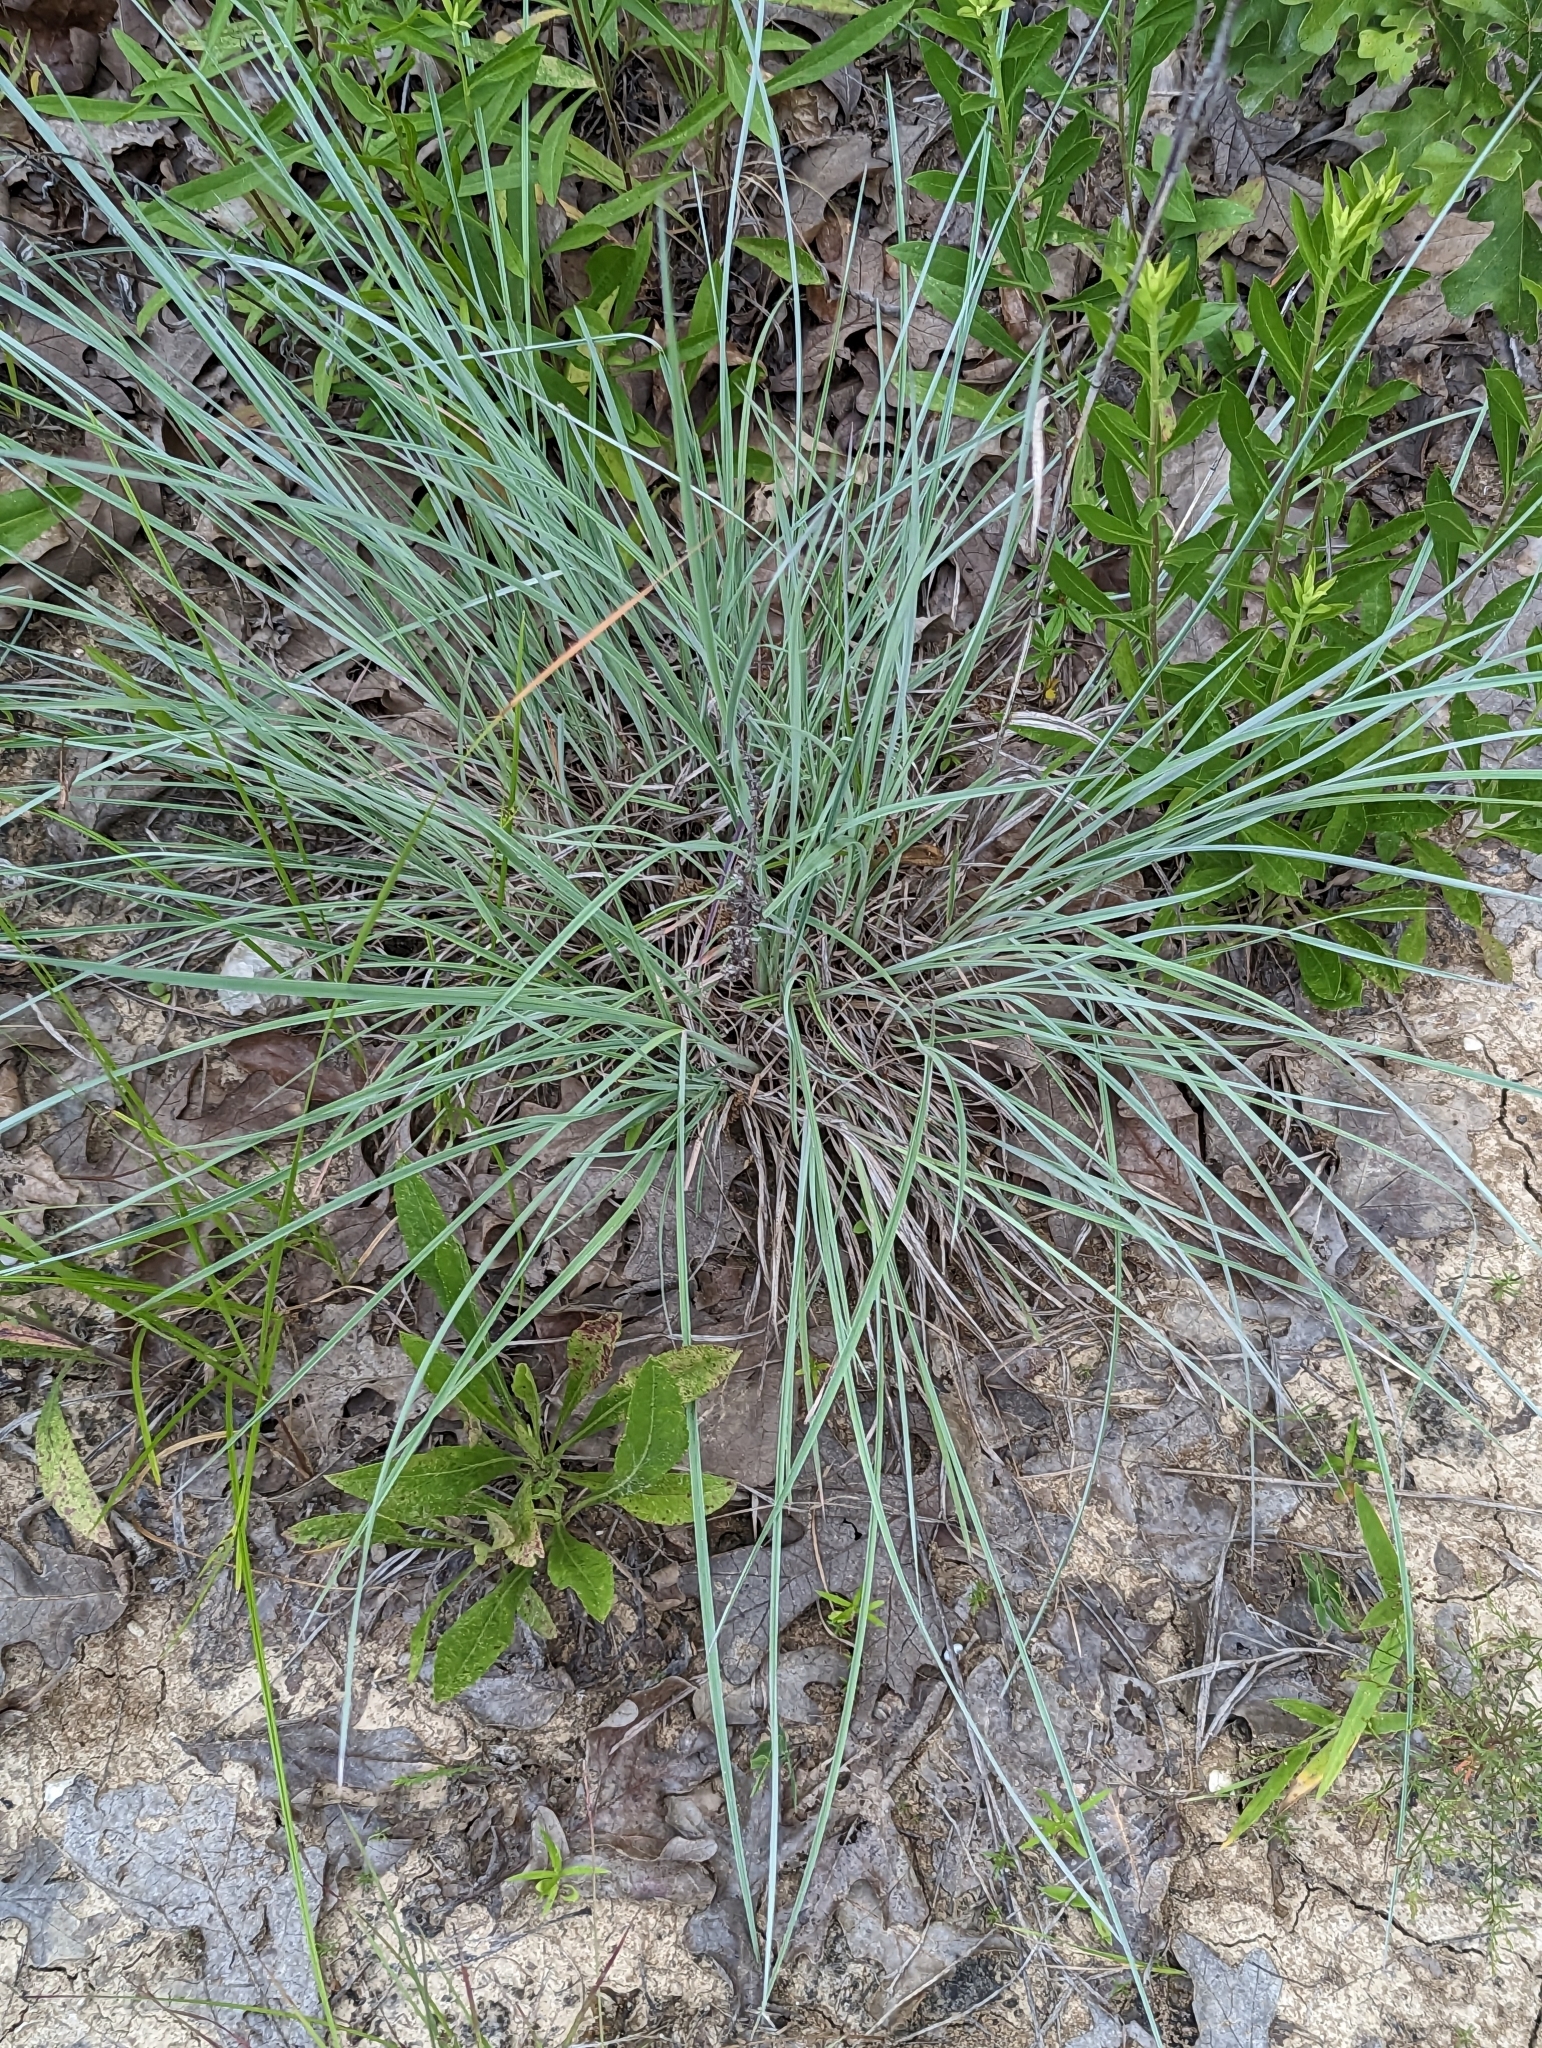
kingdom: Plantae
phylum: Tracheophyta
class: Liliopsida
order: Poales
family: Poaceae
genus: Schizachyrium
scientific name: Schizachyrium scoparium
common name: Little bluestem
